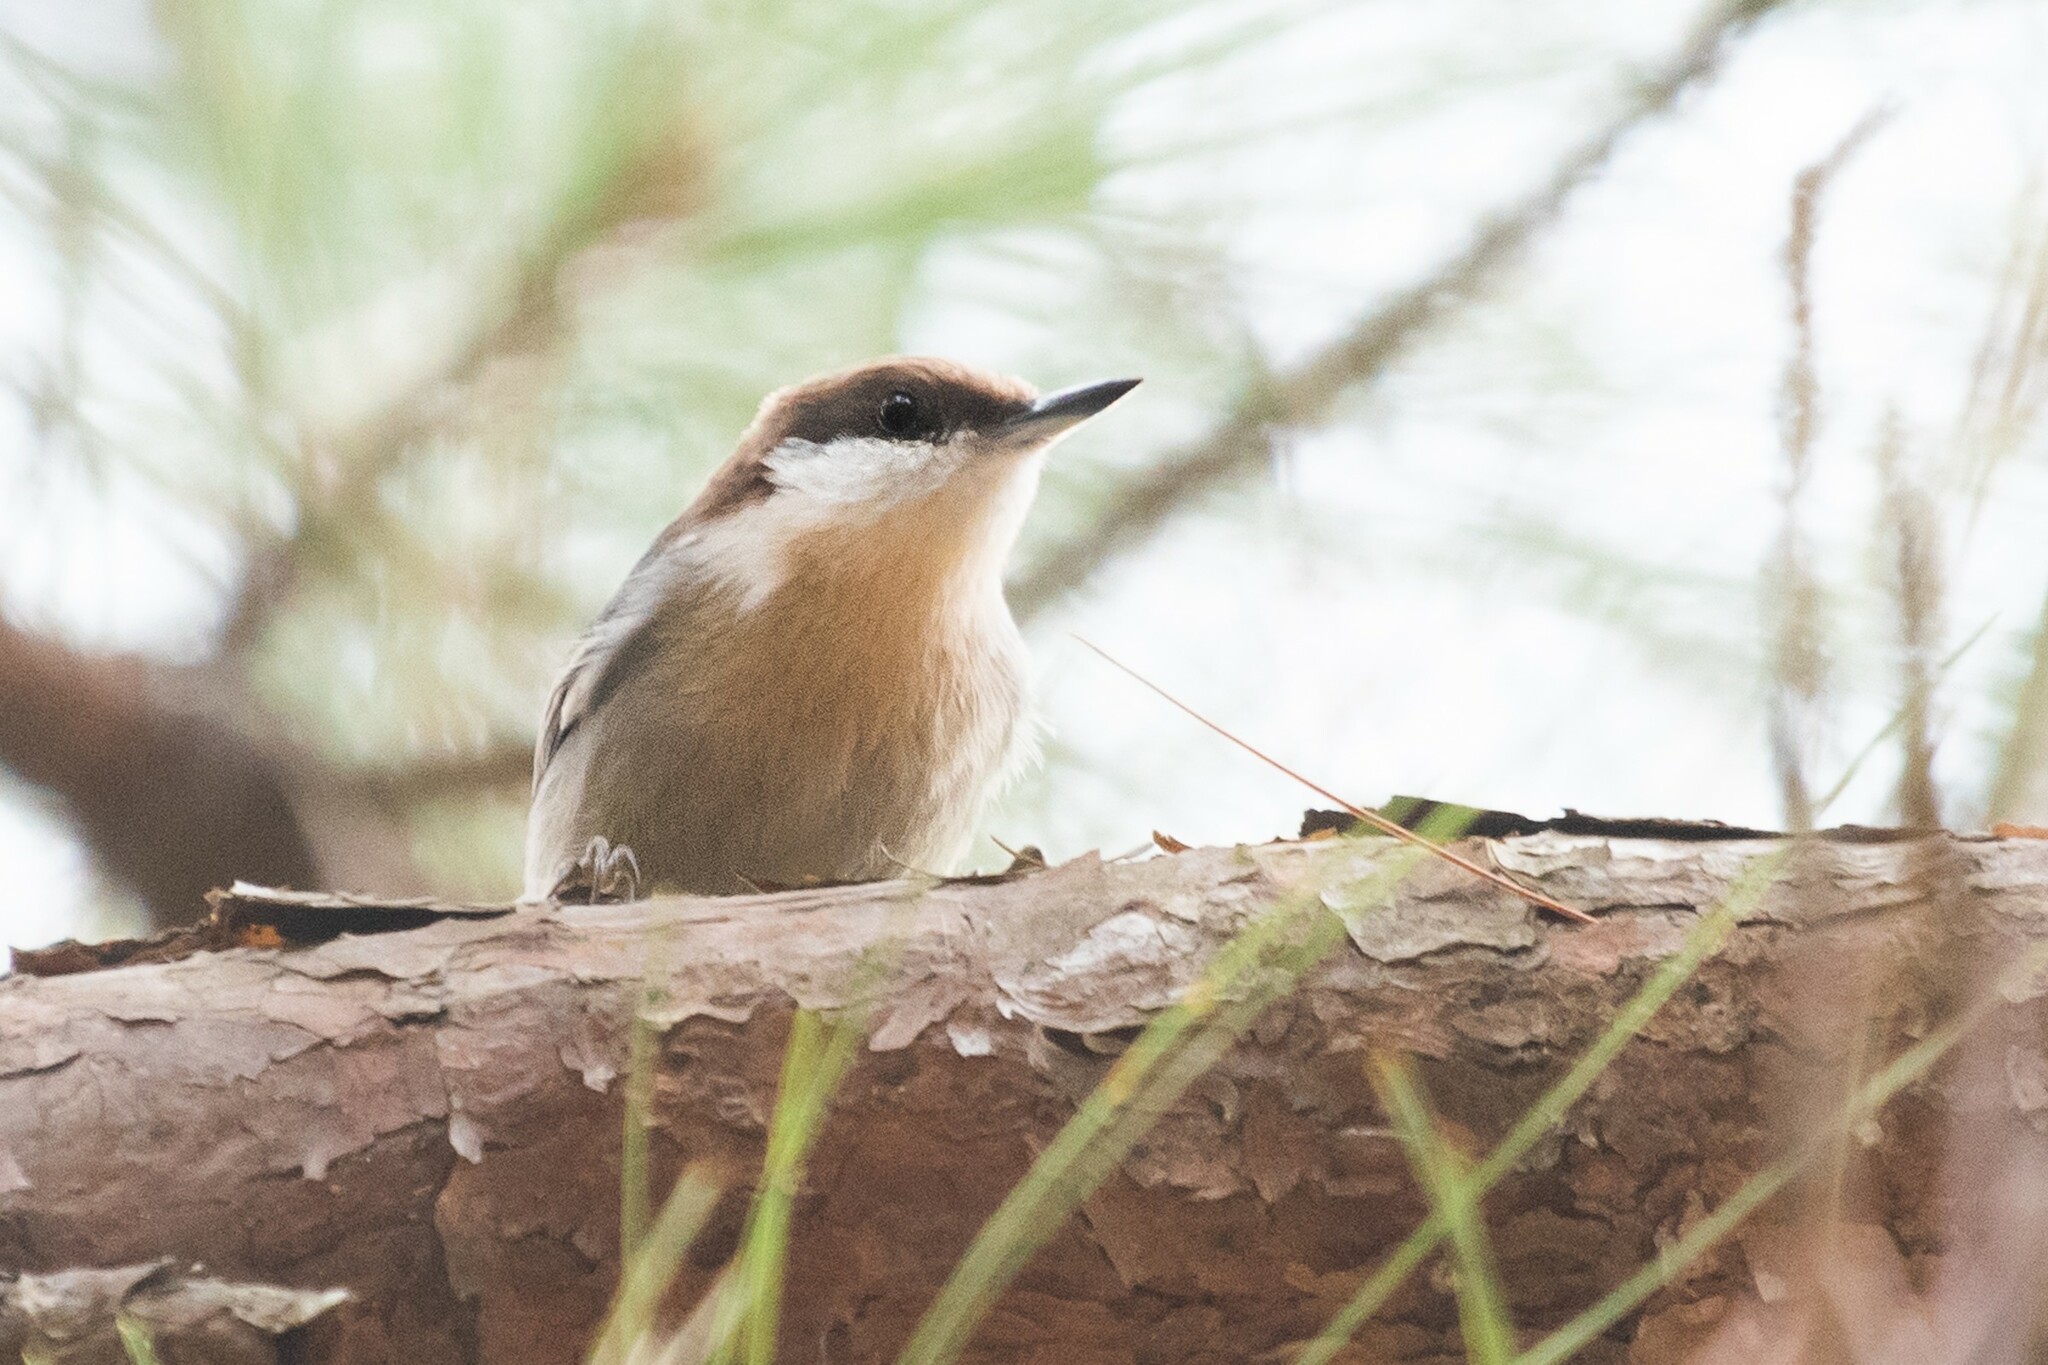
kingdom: Animalia
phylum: Chordata
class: Aves
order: Passeriformes
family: Sittidae
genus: Sitta
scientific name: Sitta pusilla
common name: Brown-headed nuthatch
